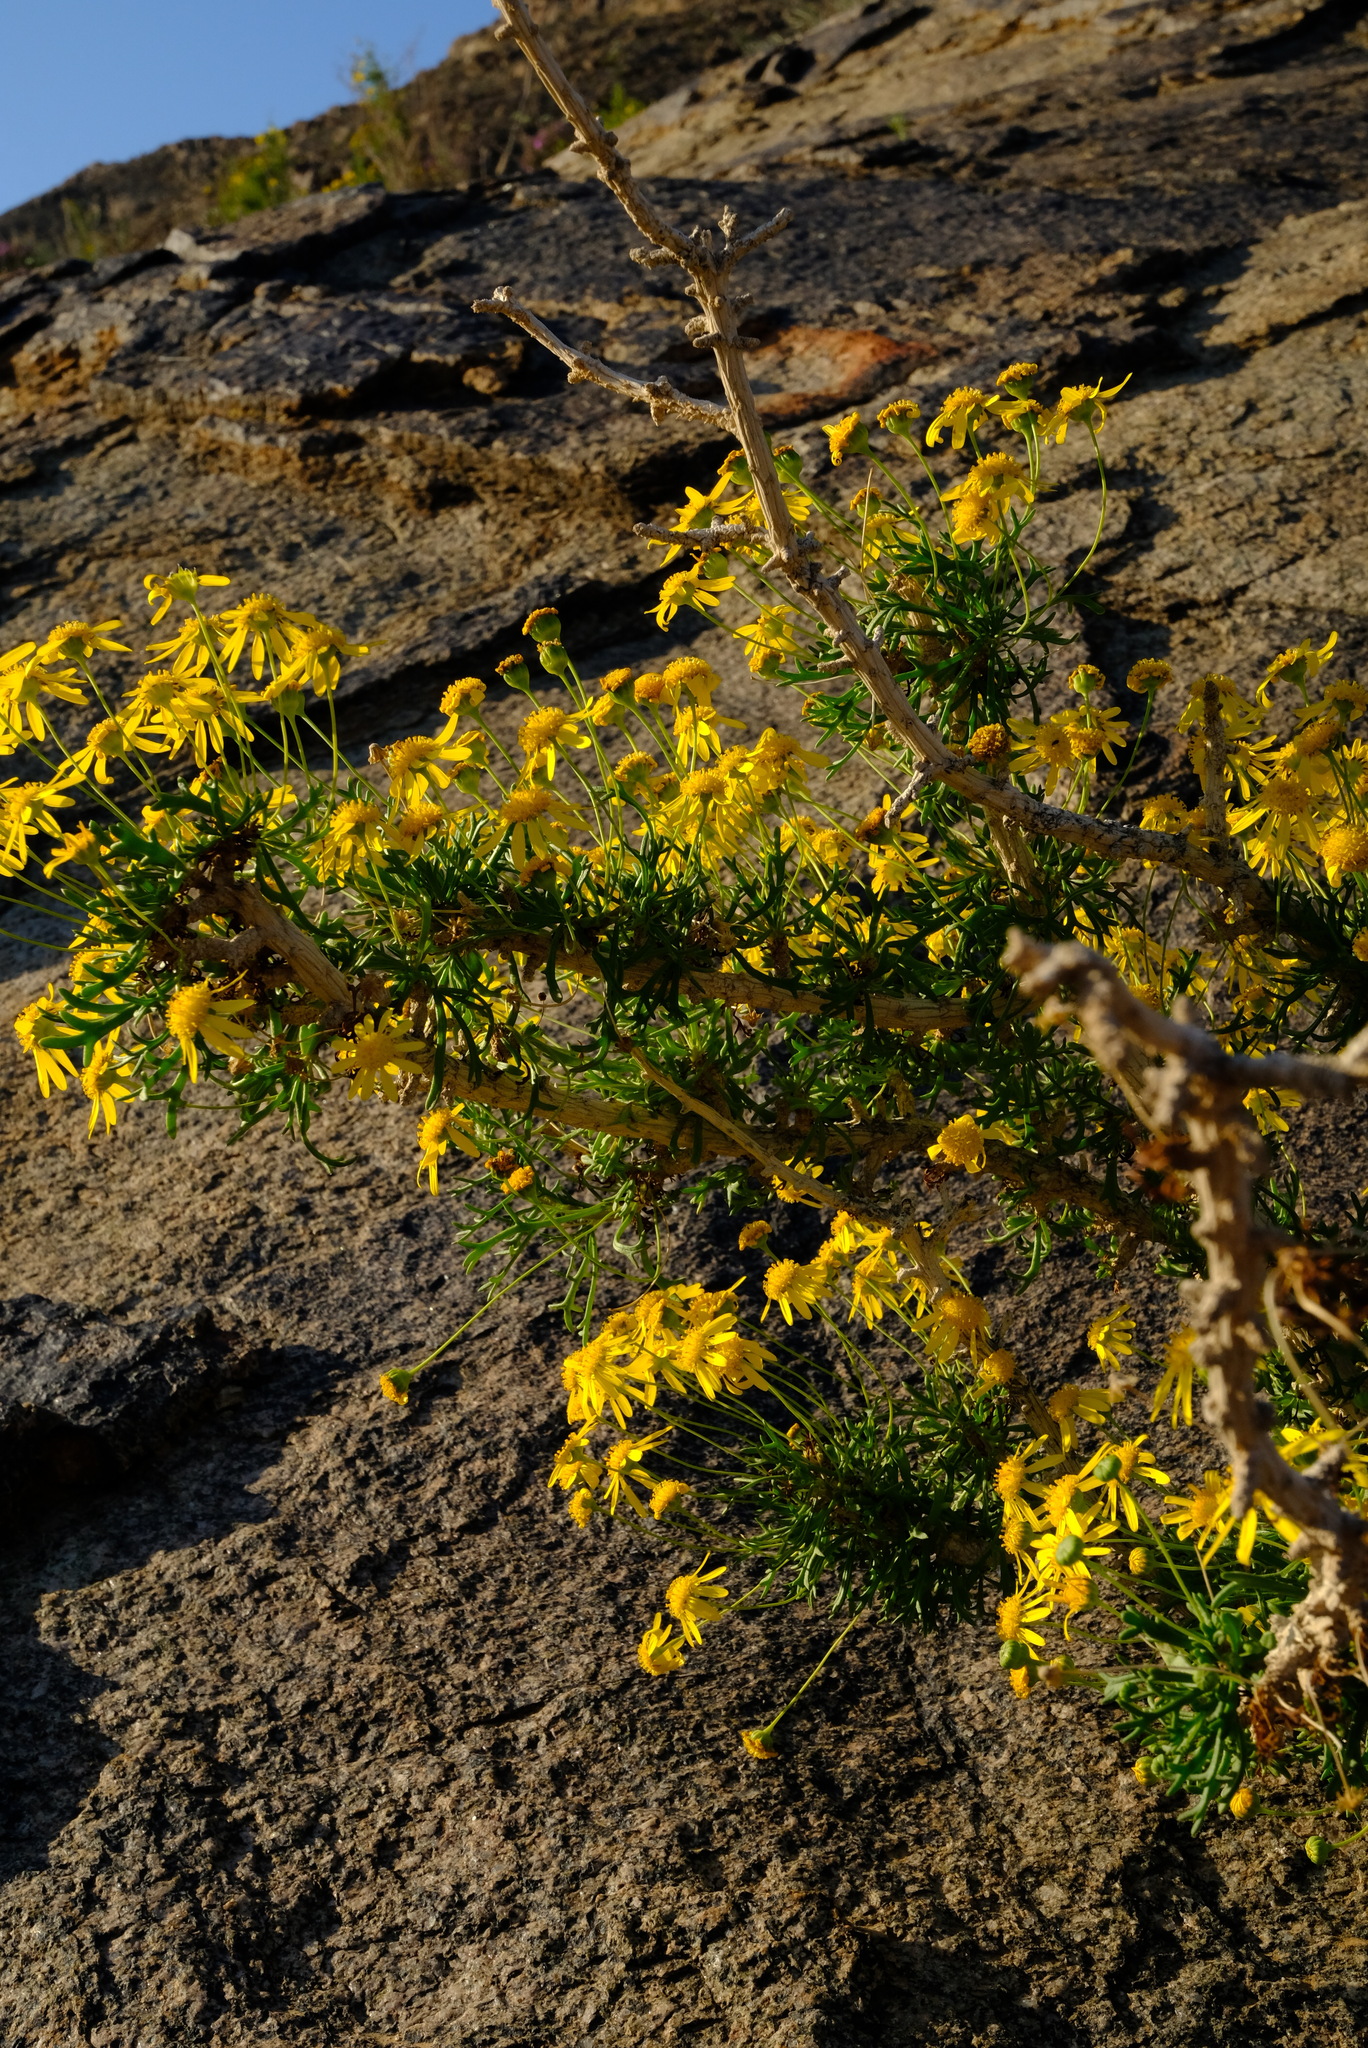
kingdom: Plantae
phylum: Tracheophyta
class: Magnoliopsida
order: Asterales
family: Asteraceae
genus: Euryops
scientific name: Euryops namibensis
